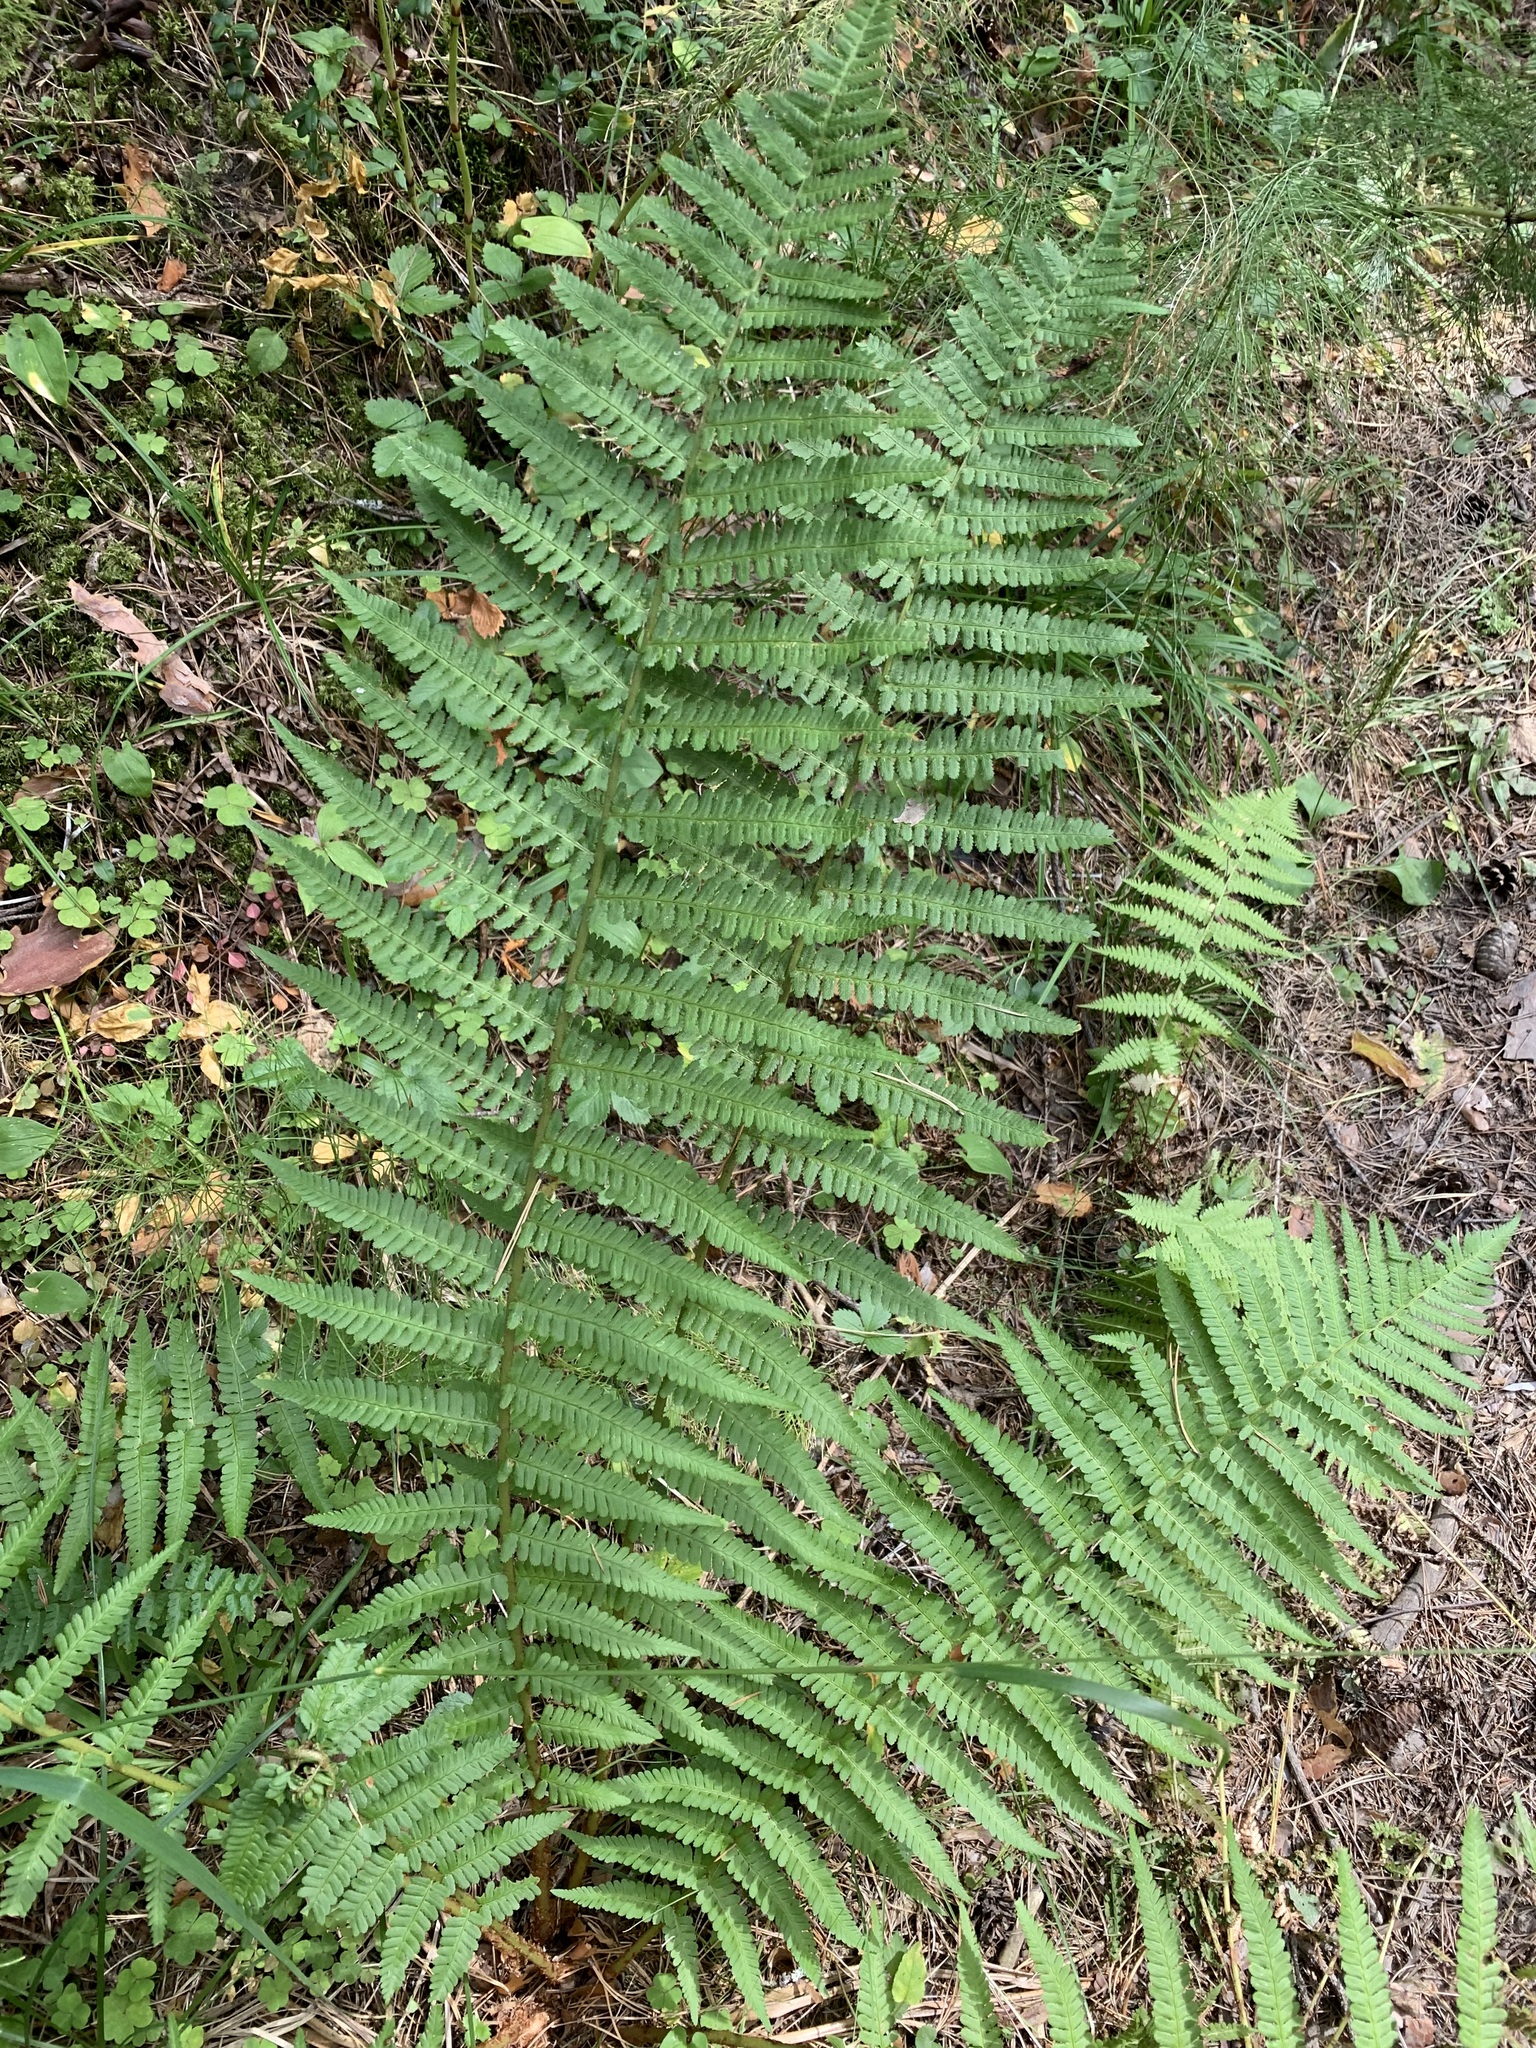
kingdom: Plantae
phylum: Tracheophyta
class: Polypodiopsida
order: Polypodiales
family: Dryopteridaceae
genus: Dryopteris
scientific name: Dryopteris filix-mas
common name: Male fern
